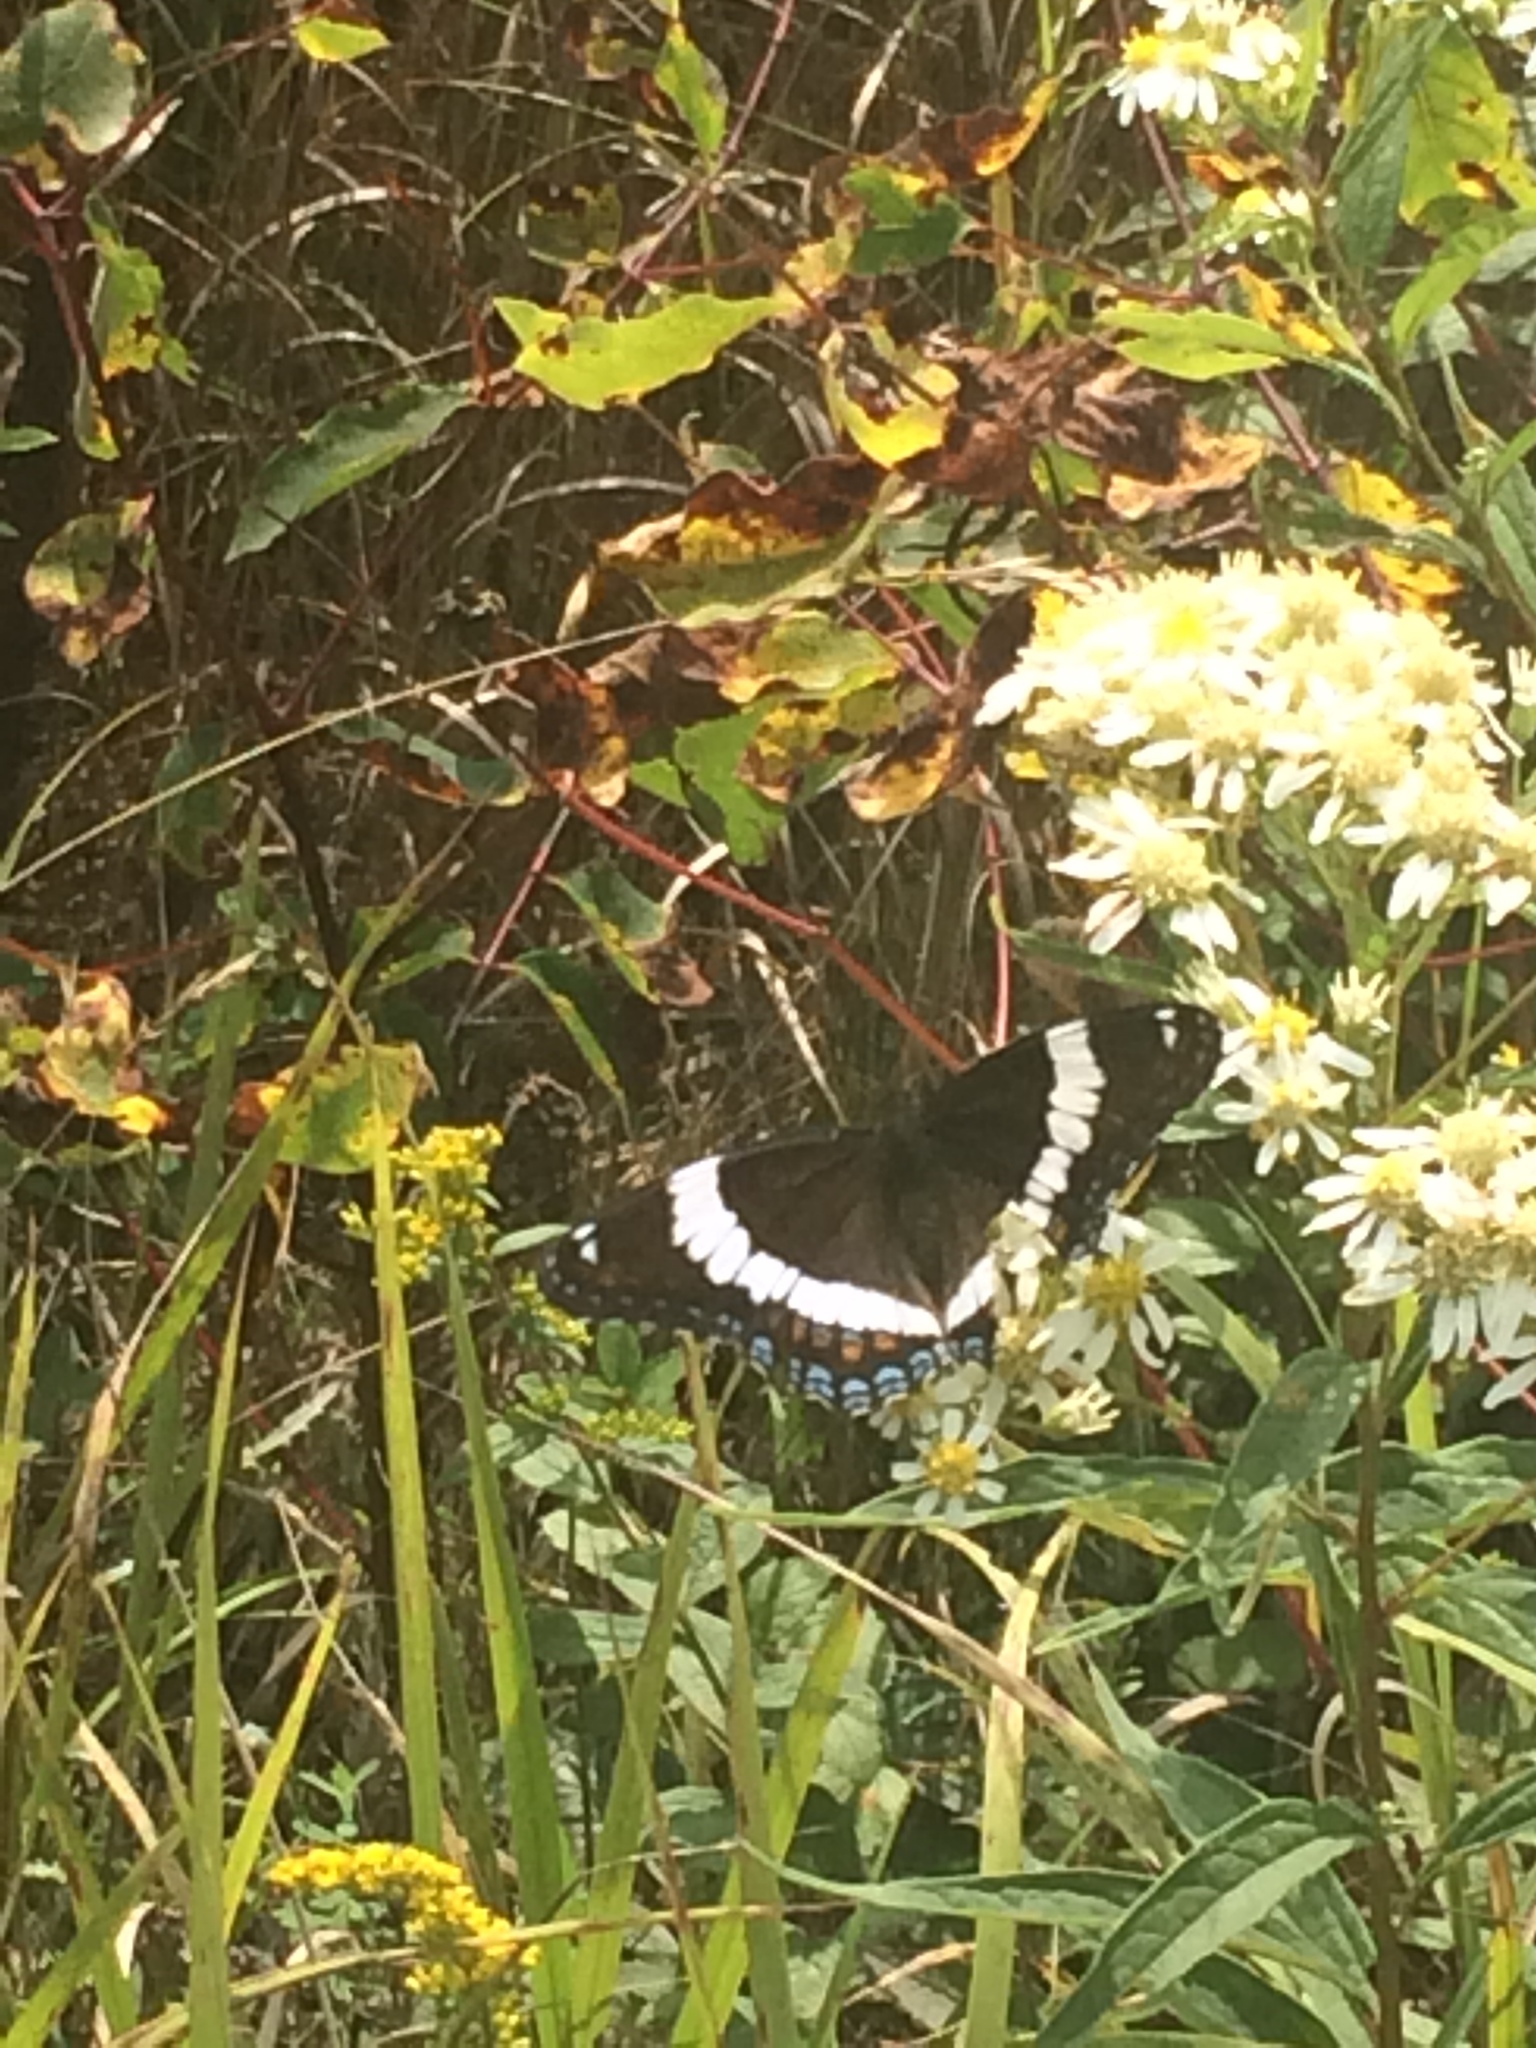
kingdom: Animalia
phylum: Arthropoda
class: Insecta
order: Lepidoptera
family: Nymphalidae
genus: Limenitis
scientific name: Limenitis arthemis
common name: Red-spotted admiral
